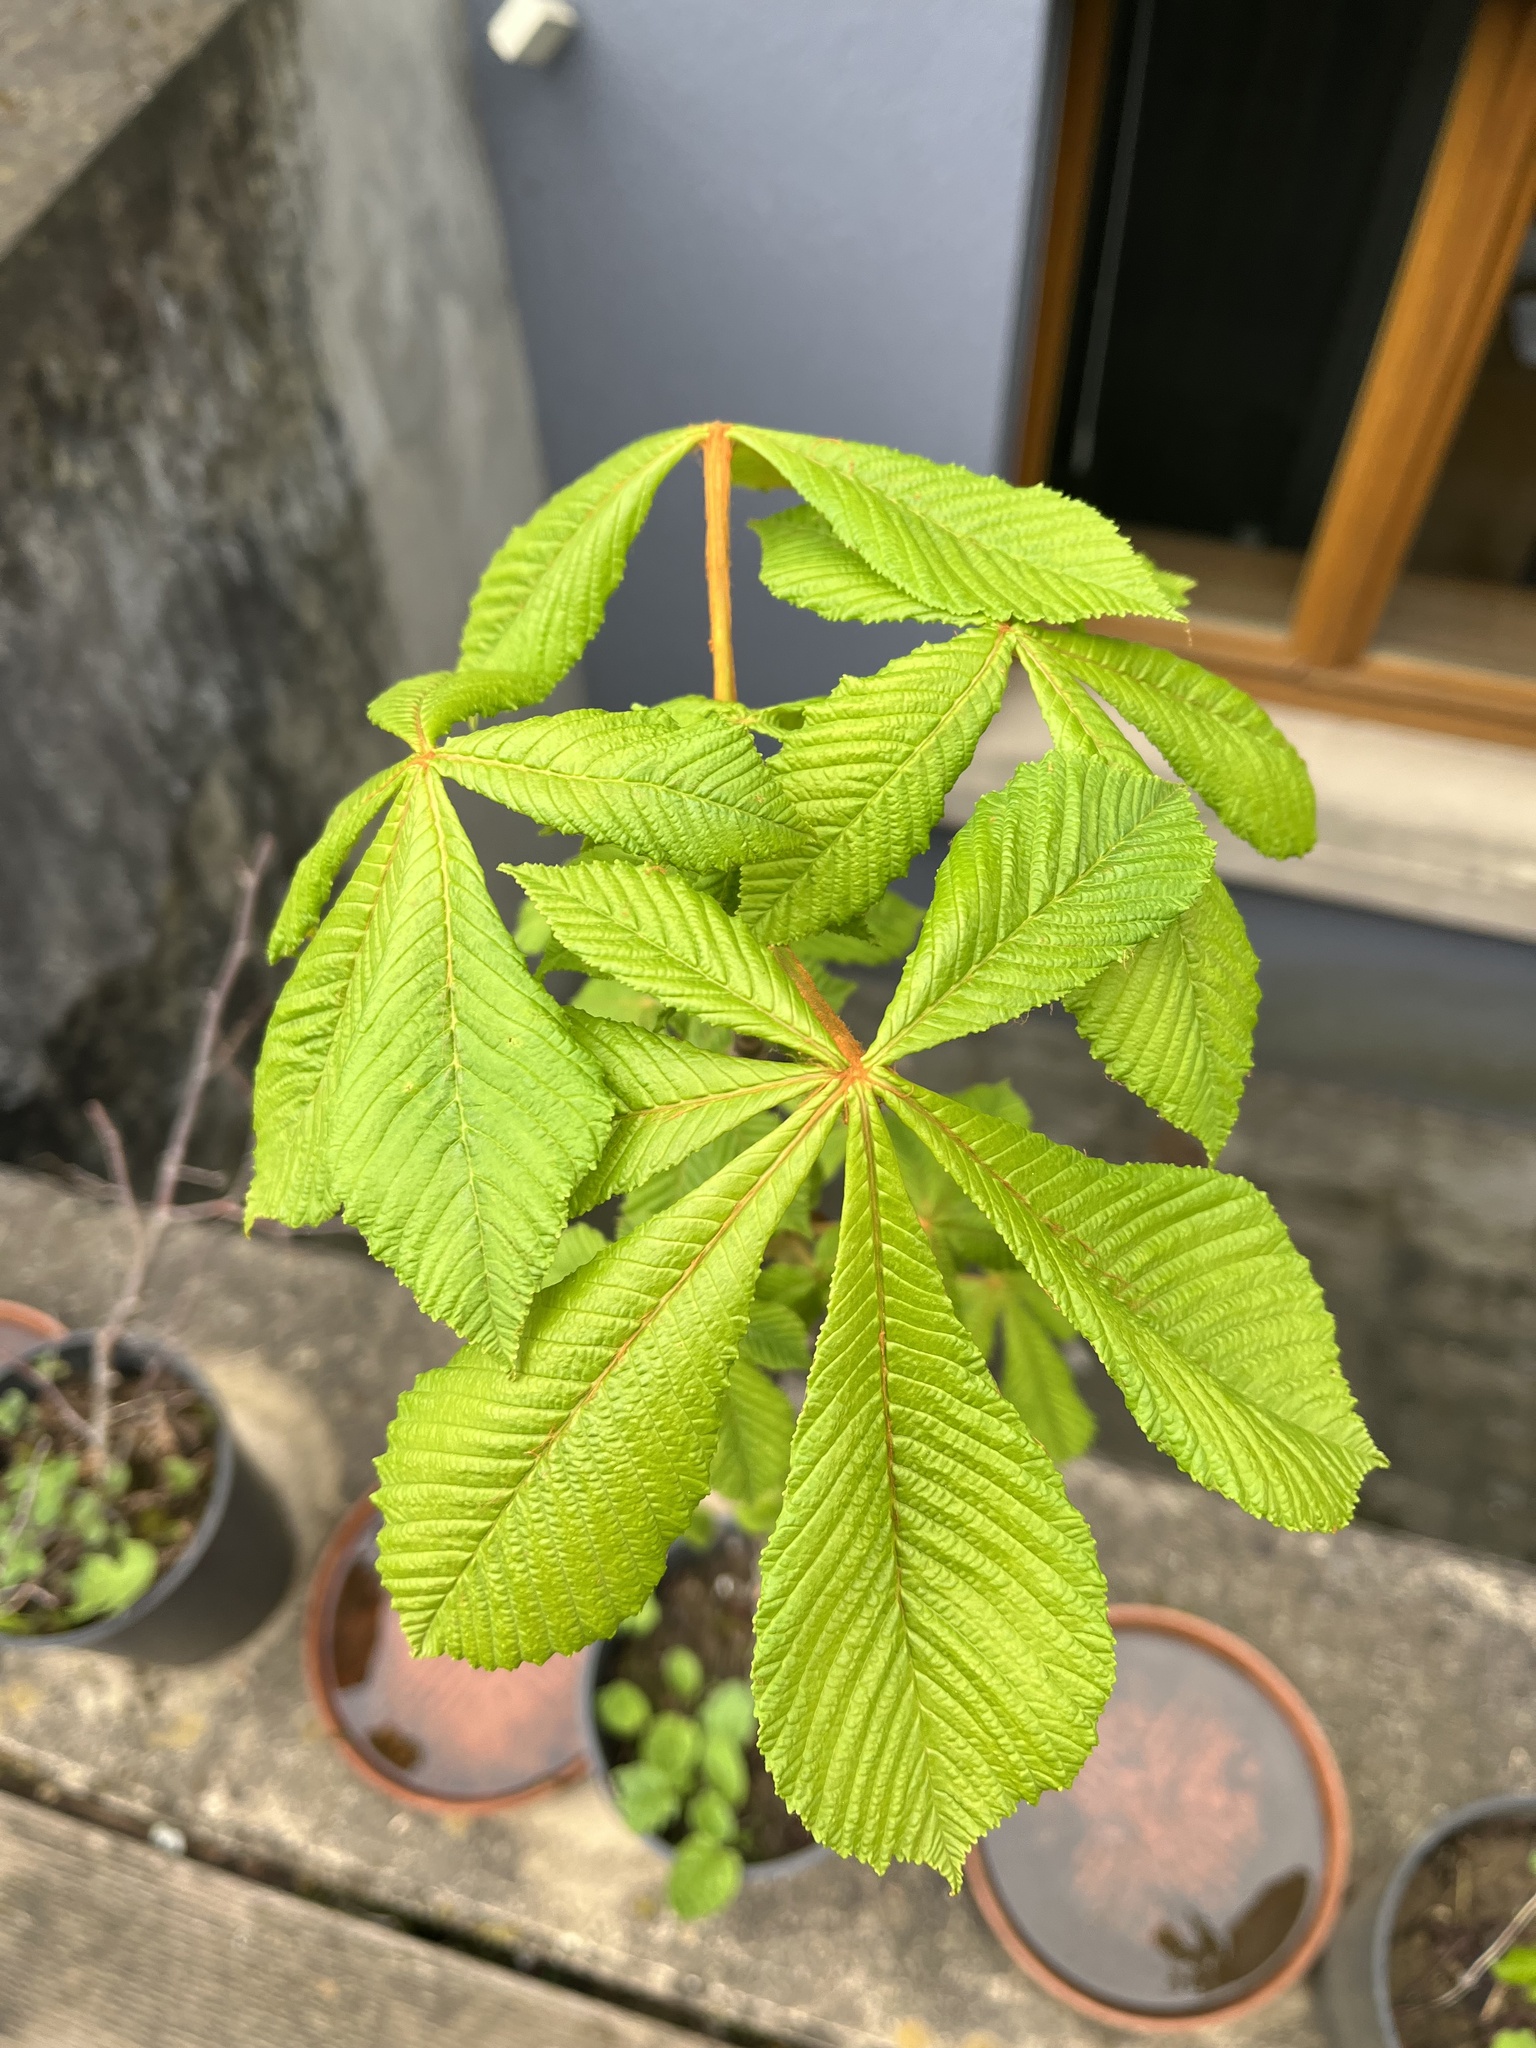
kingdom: Plantae
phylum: Tracheophyta
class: Magnoliopsida
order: Sapindales
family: Sapindaceae
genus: Aesculus
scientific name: Aesculus hippocastanum
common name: Horse-chestnut
